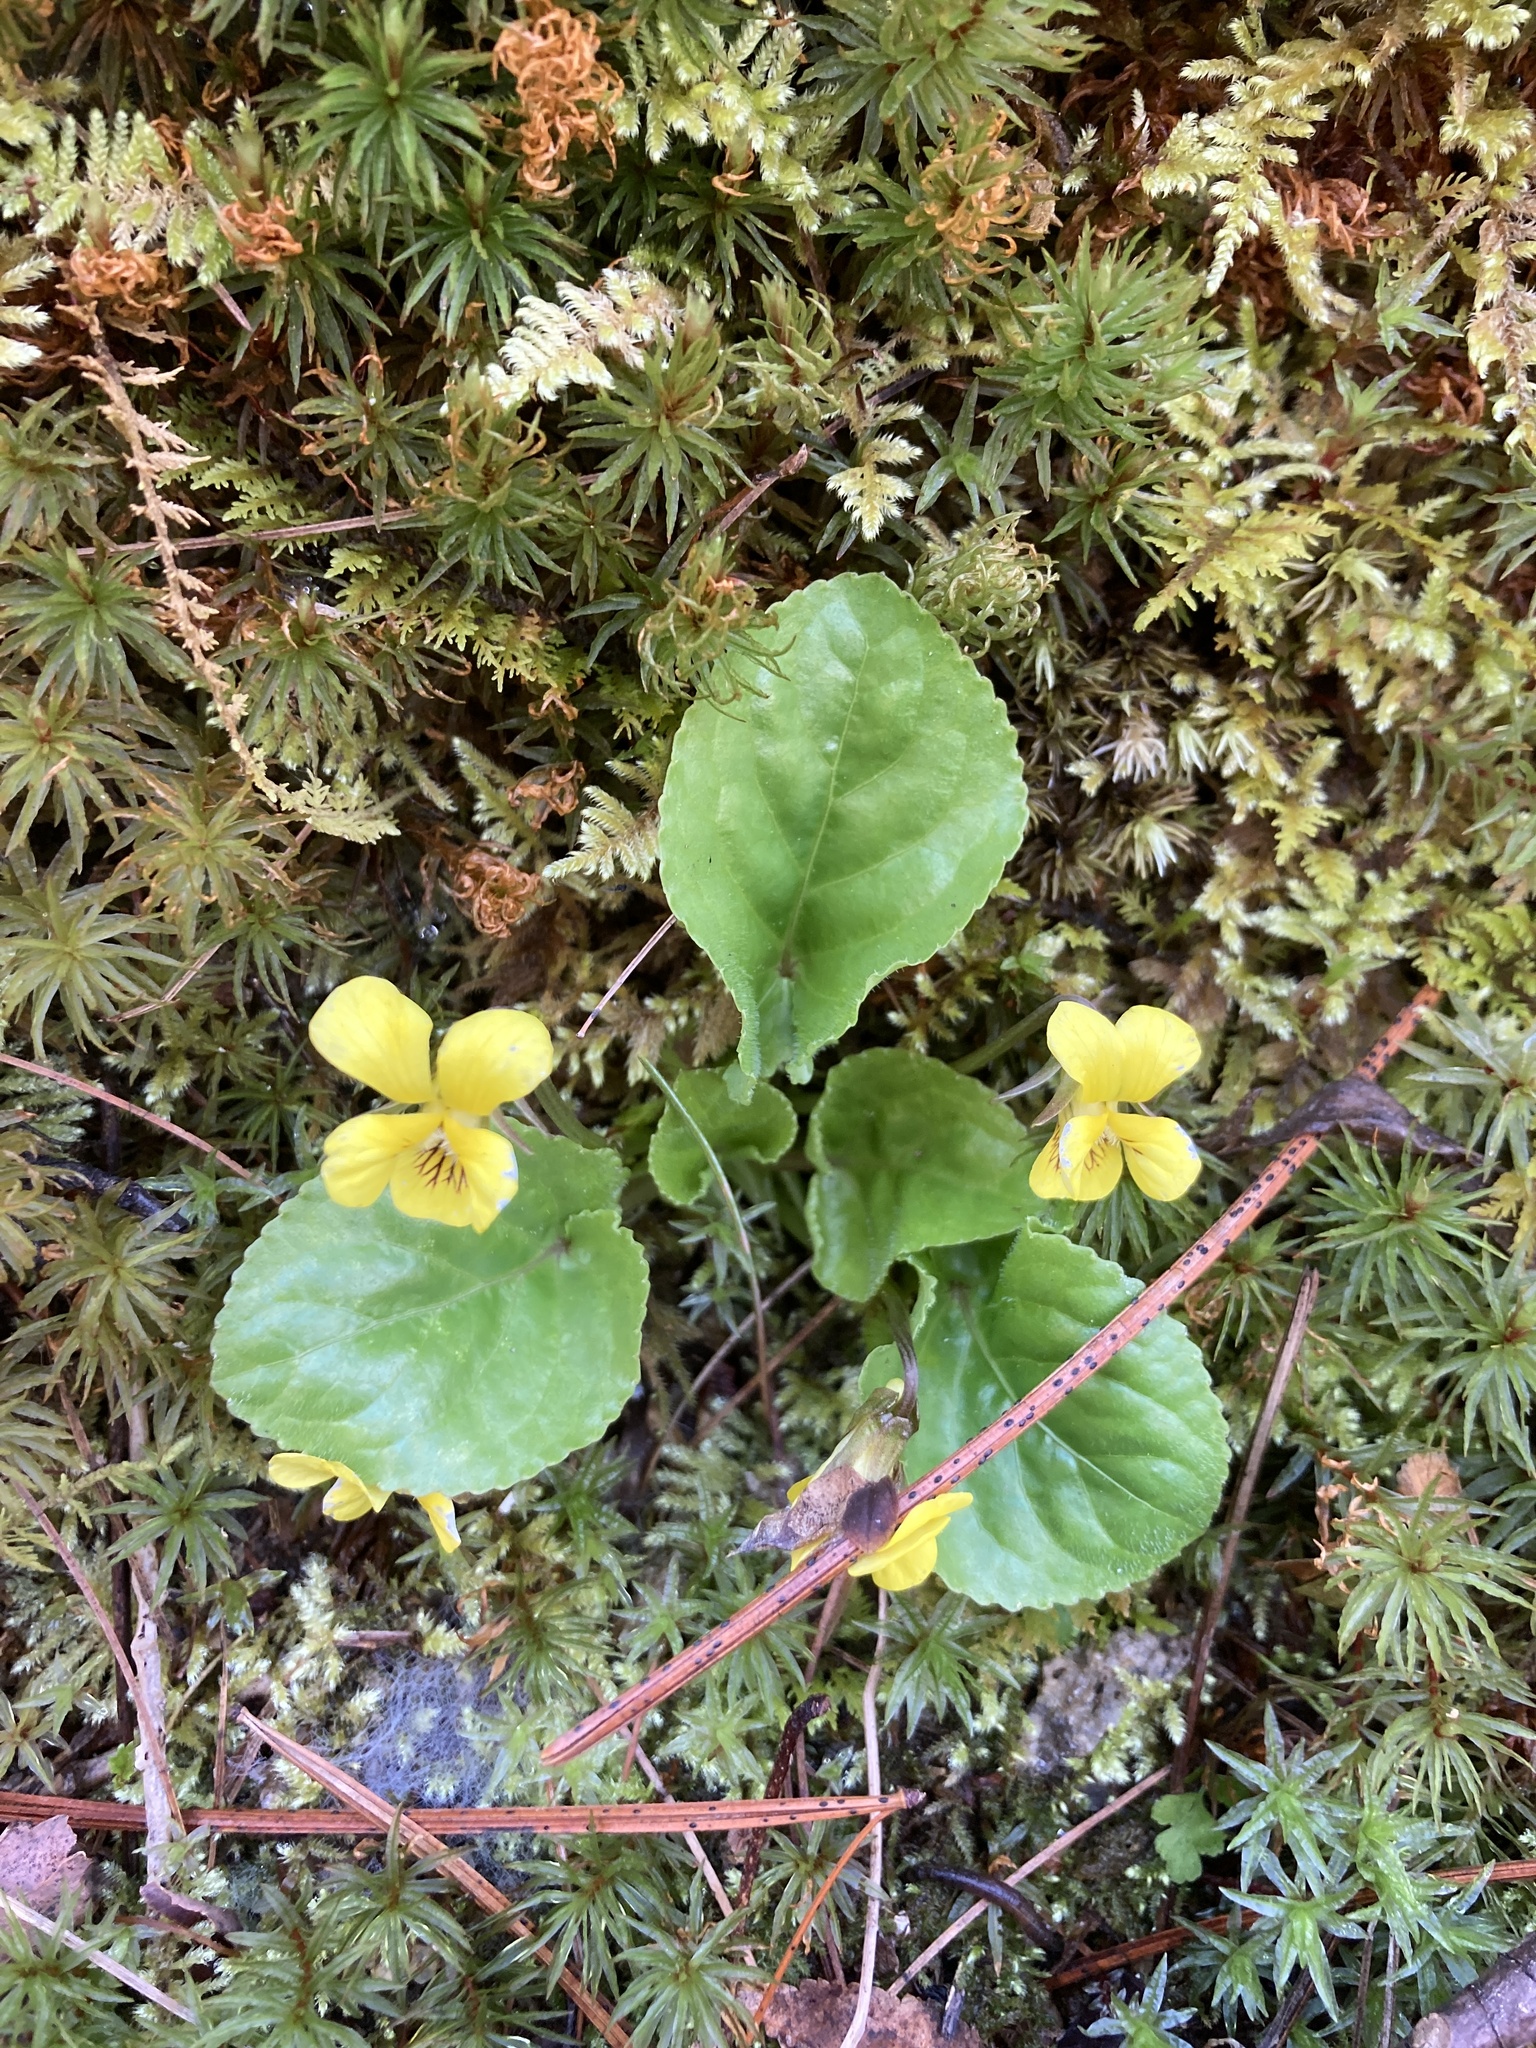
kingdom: Plantae
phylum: Tracheophyta
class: Magnoliopsida
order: Malpighiales
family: Violaceae
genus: Viola
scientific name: Viola rotundifolia
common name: Early yellow violet
